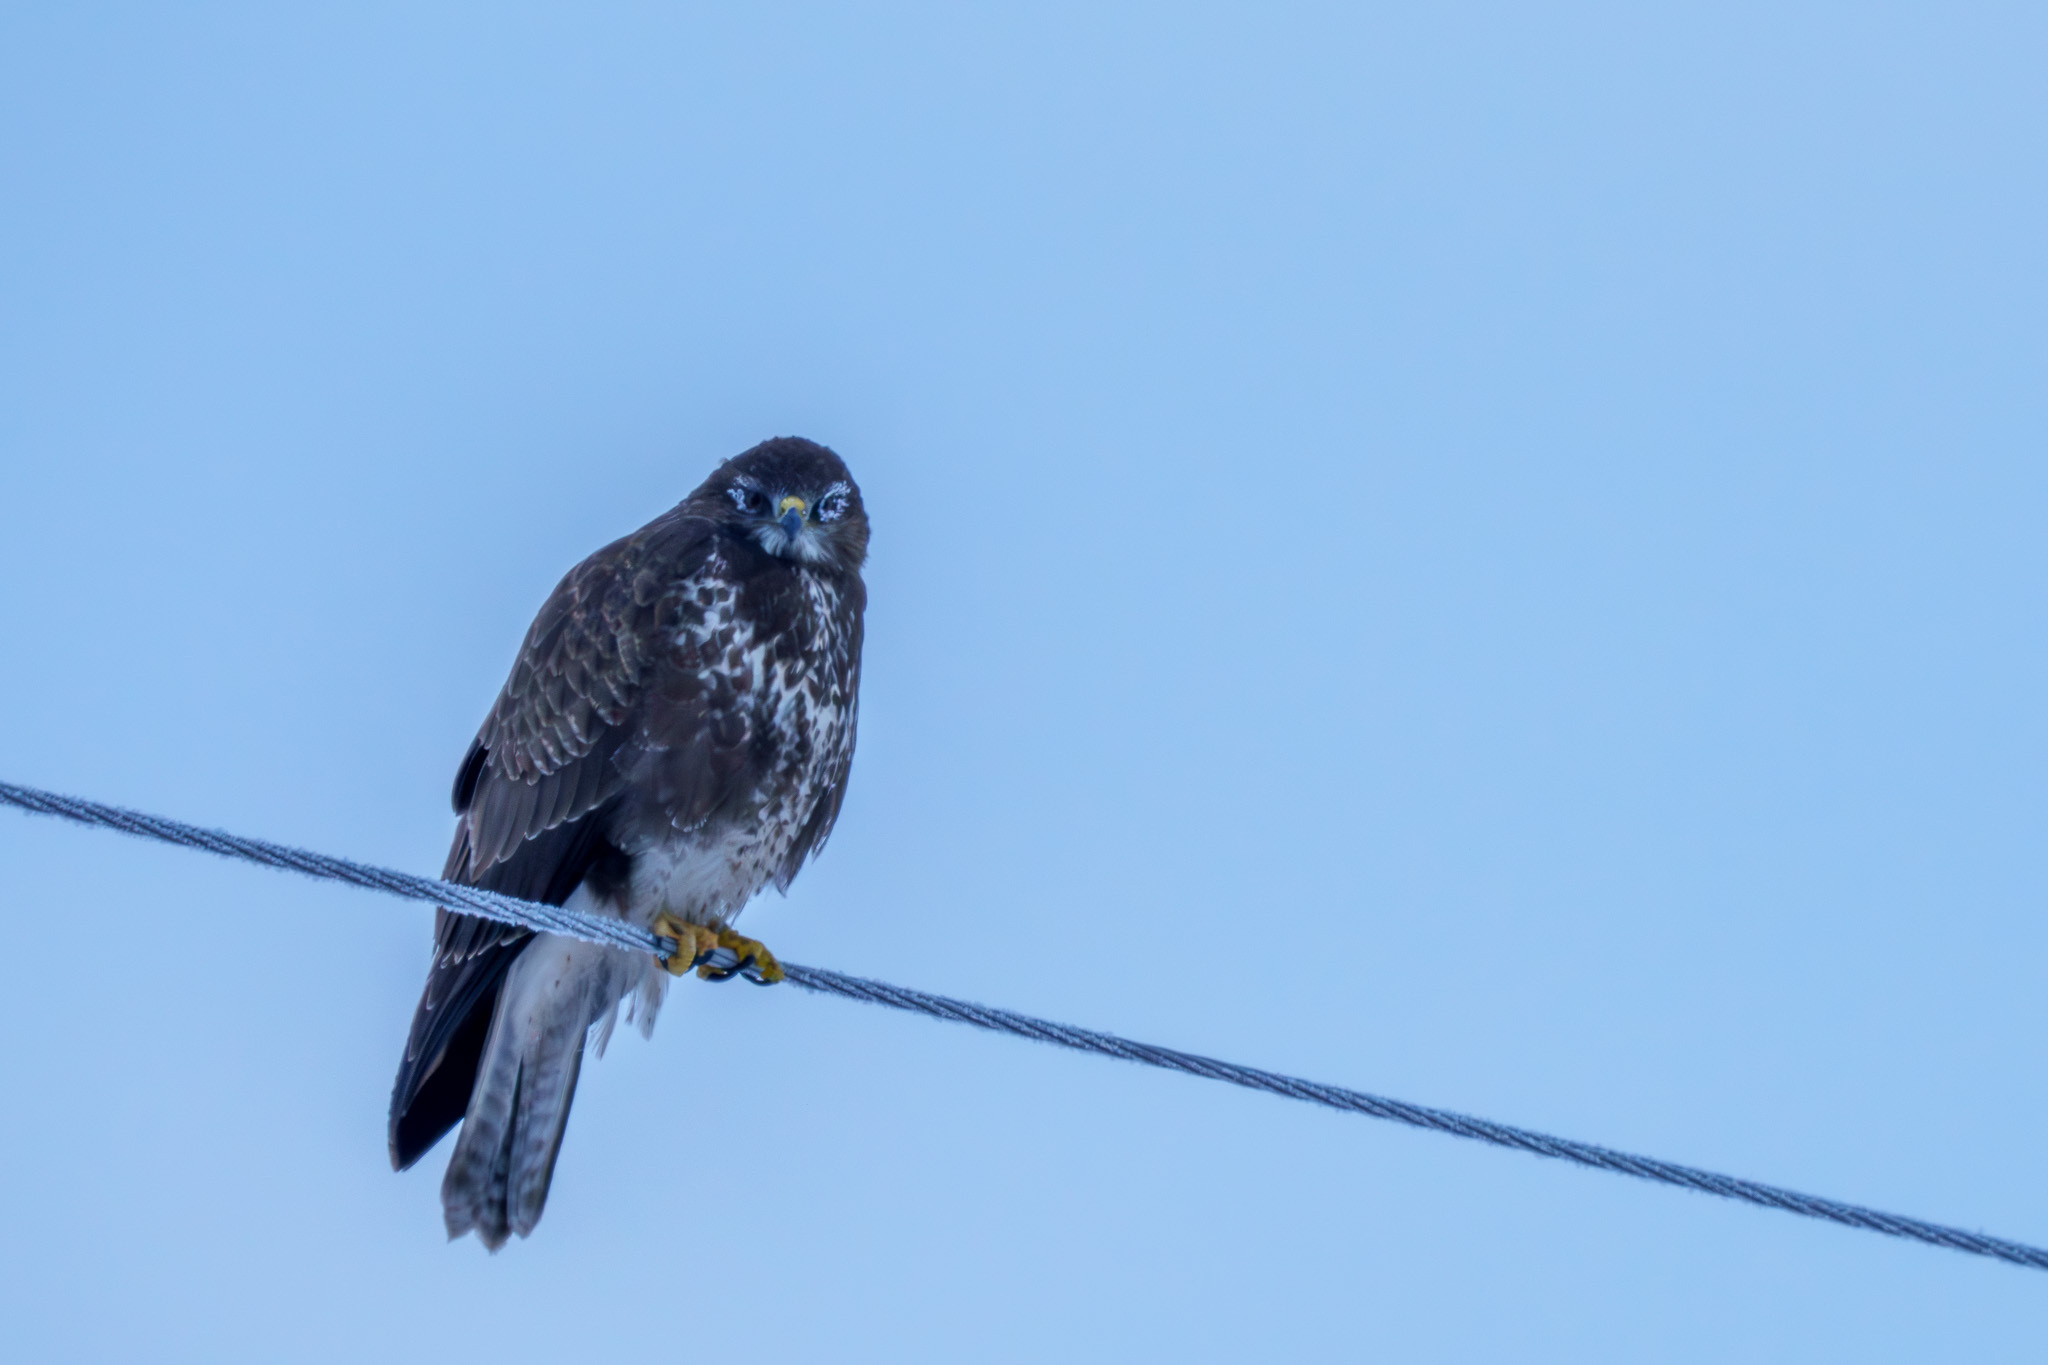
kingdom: Animalia
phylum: Chordata
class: Aves
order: Accipitriformes
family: Accipitridae
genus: Buteo
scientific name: Buteo buteo
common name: Common buzzard
